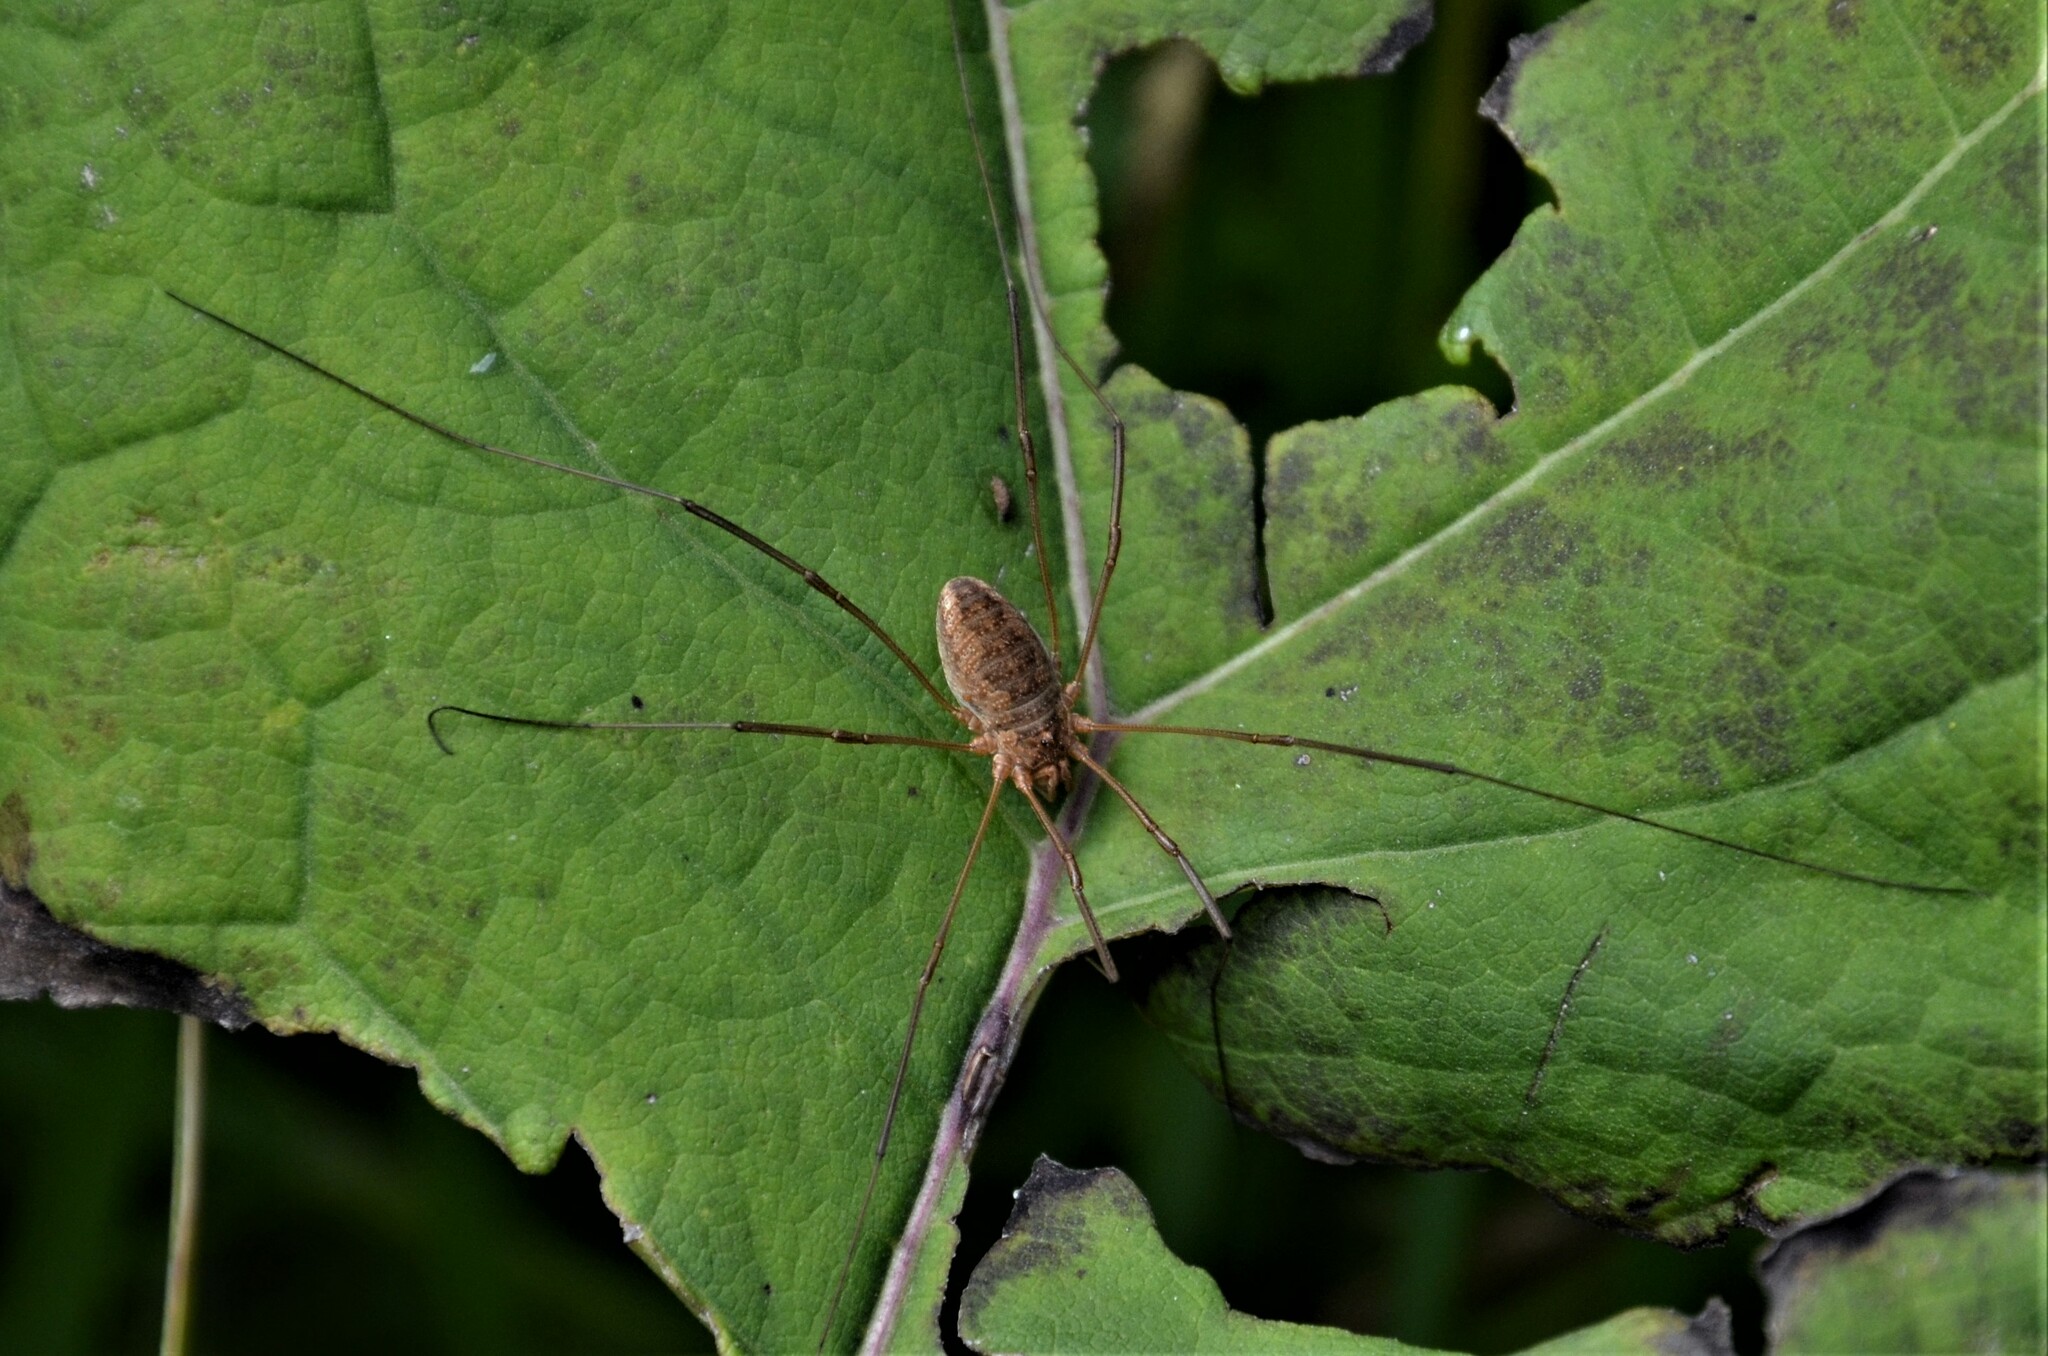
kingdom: Animalia
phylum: Arthropoda
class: Arachnida
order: Opiliones
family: Phalangiidae
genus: Phalangium
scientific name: Phalangium opilio
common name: Daddy longleg
